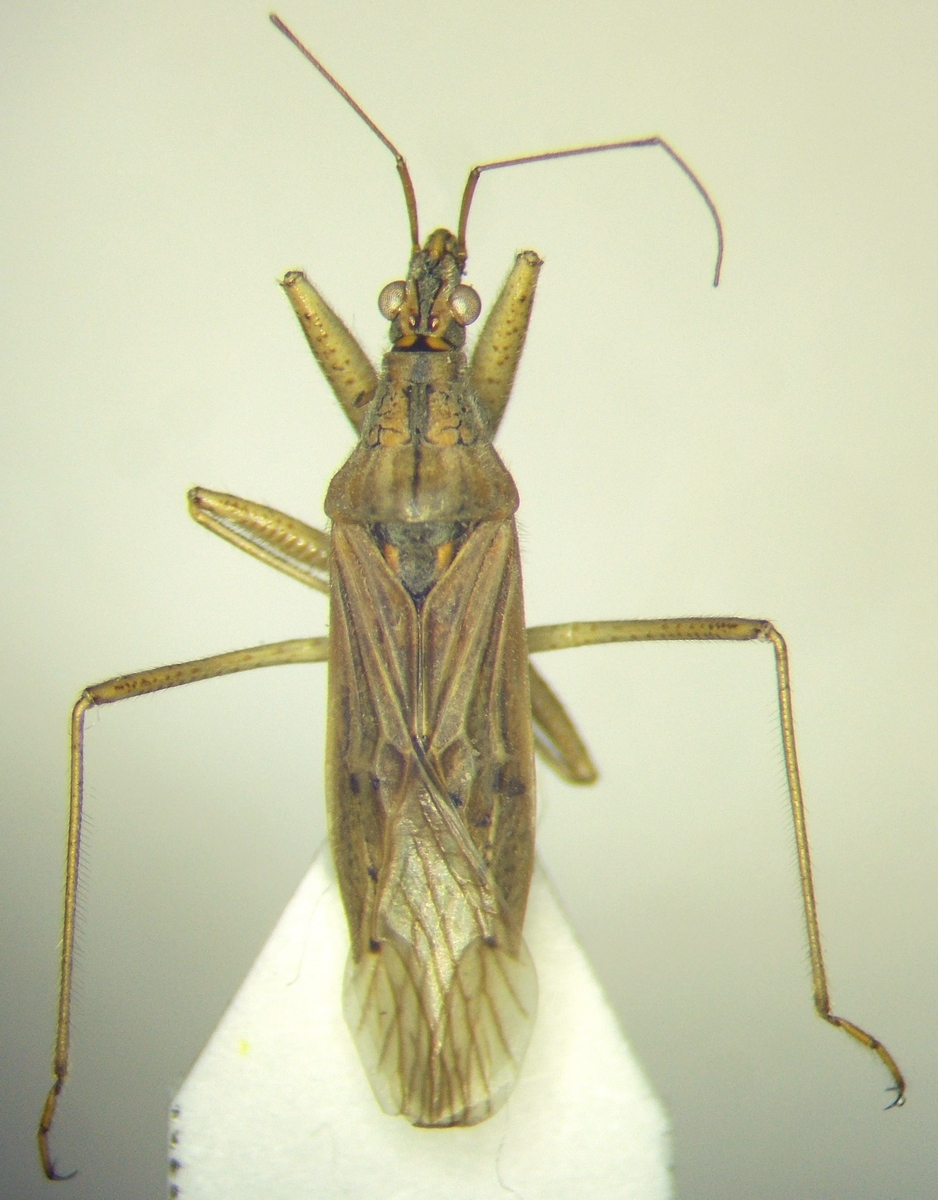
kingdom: Animalia
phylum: Arthropoda
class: Insecta
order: Hemiptera
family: Nabidae
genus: Nabis
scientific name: Nabis pseudoferus
